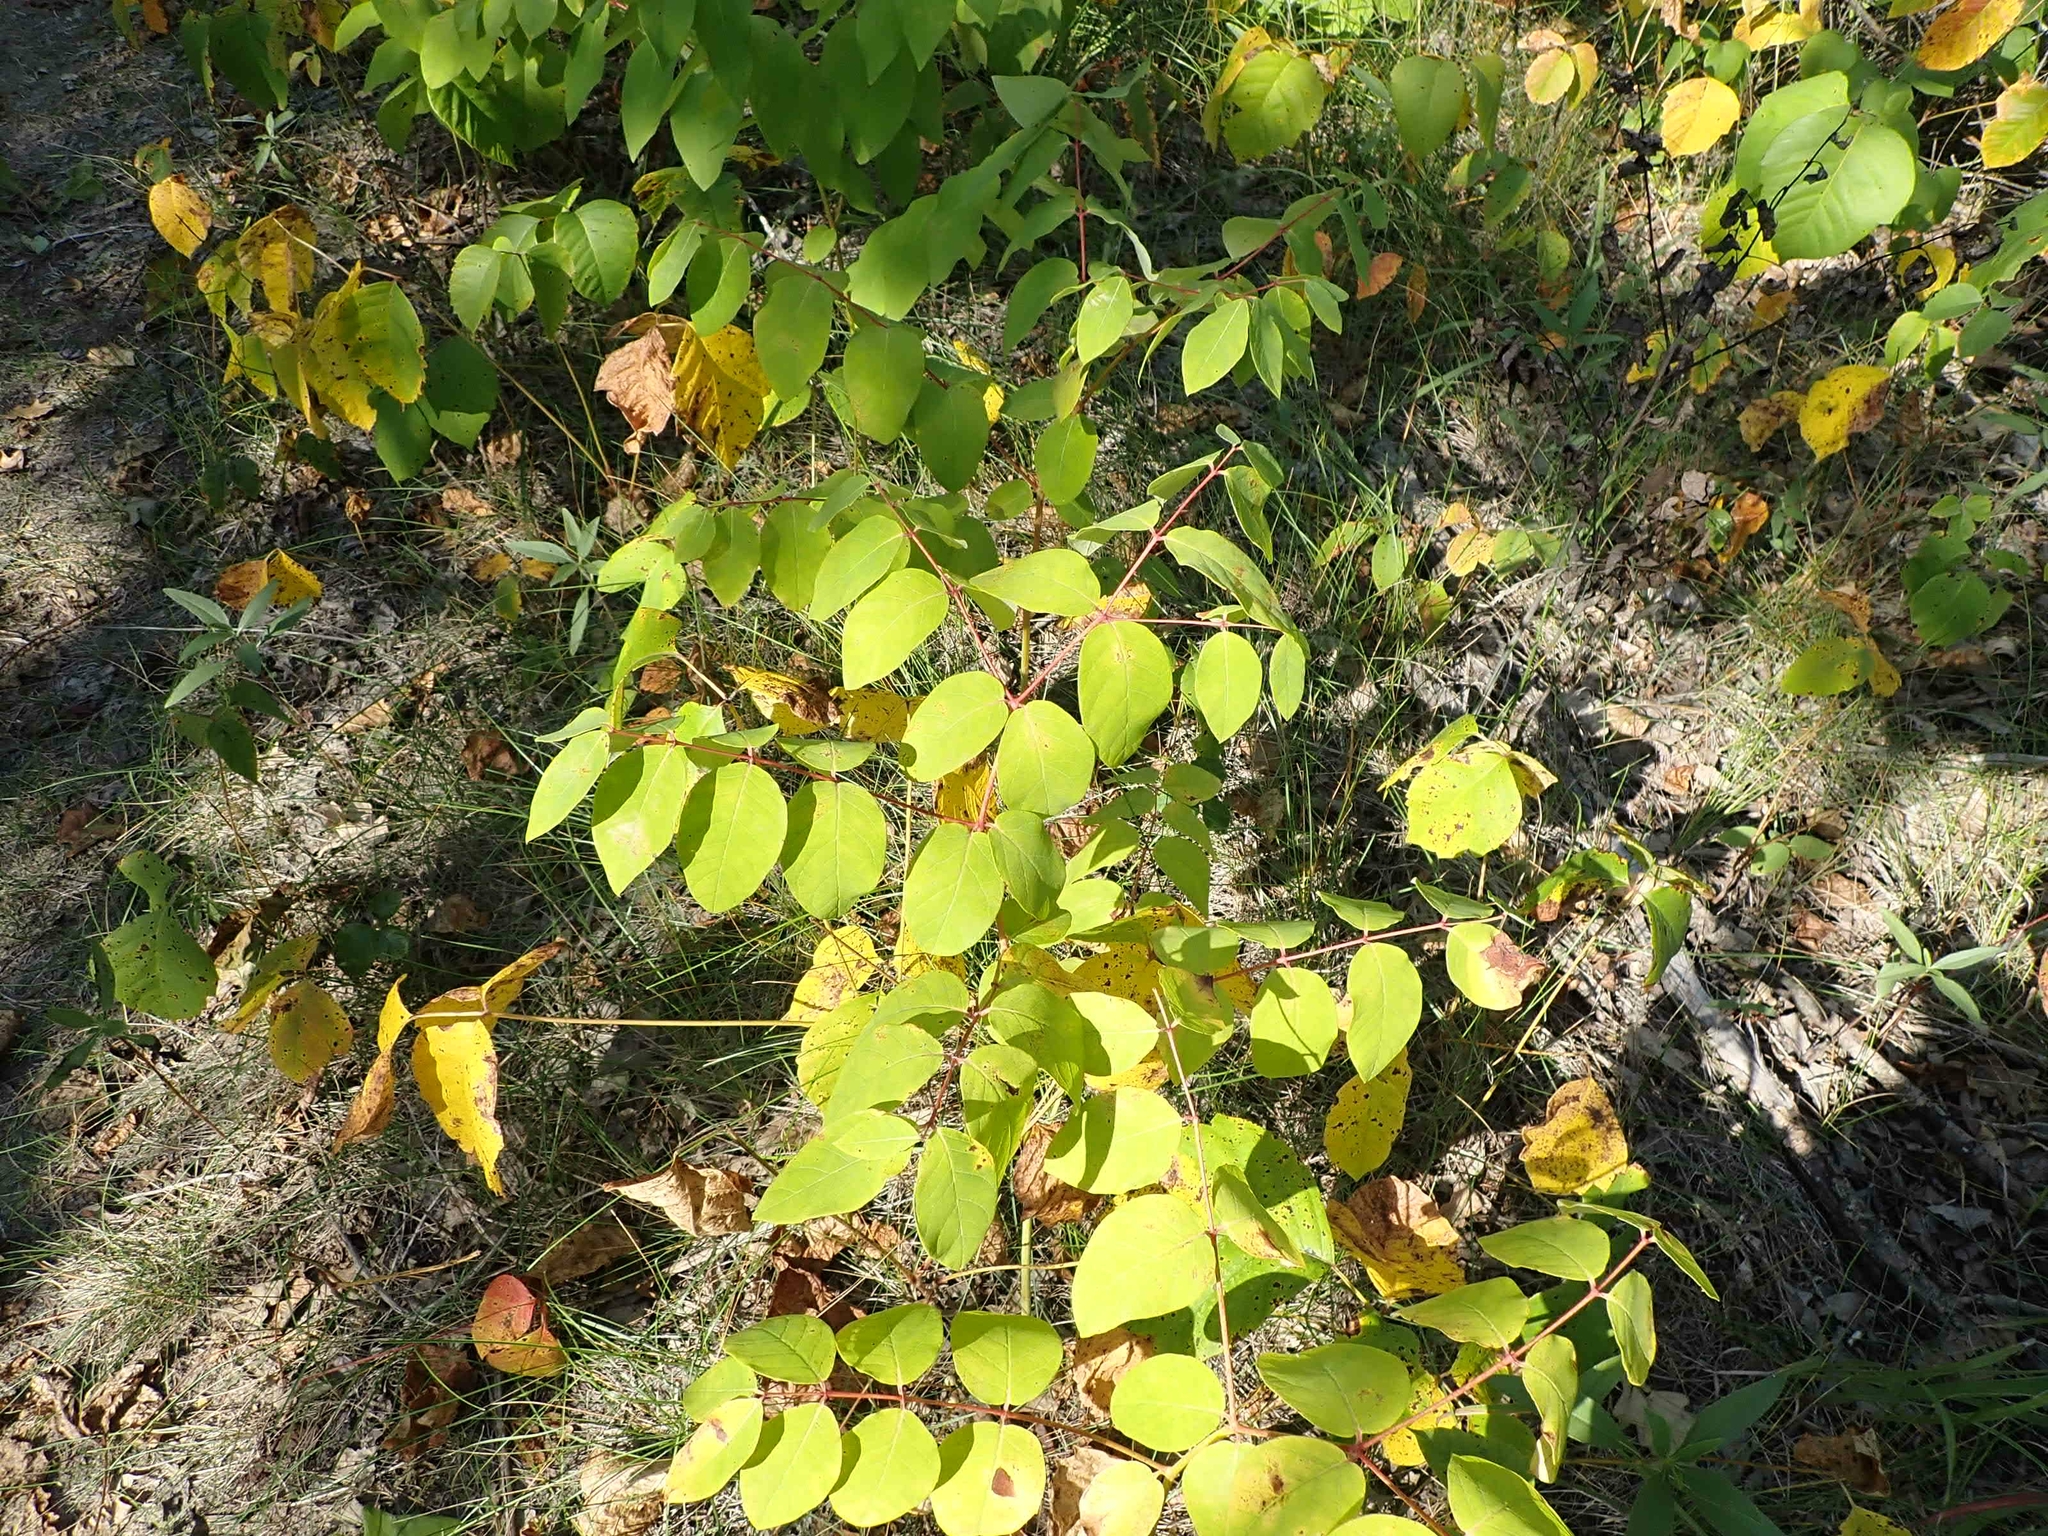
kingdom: Plantae
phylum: Tracheophyta
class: Magnoliopsida
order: Gentianales
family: Apocynaceae
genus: Apocynum
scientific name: Apocynum androsaemifolium
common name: Spreading dogbane
